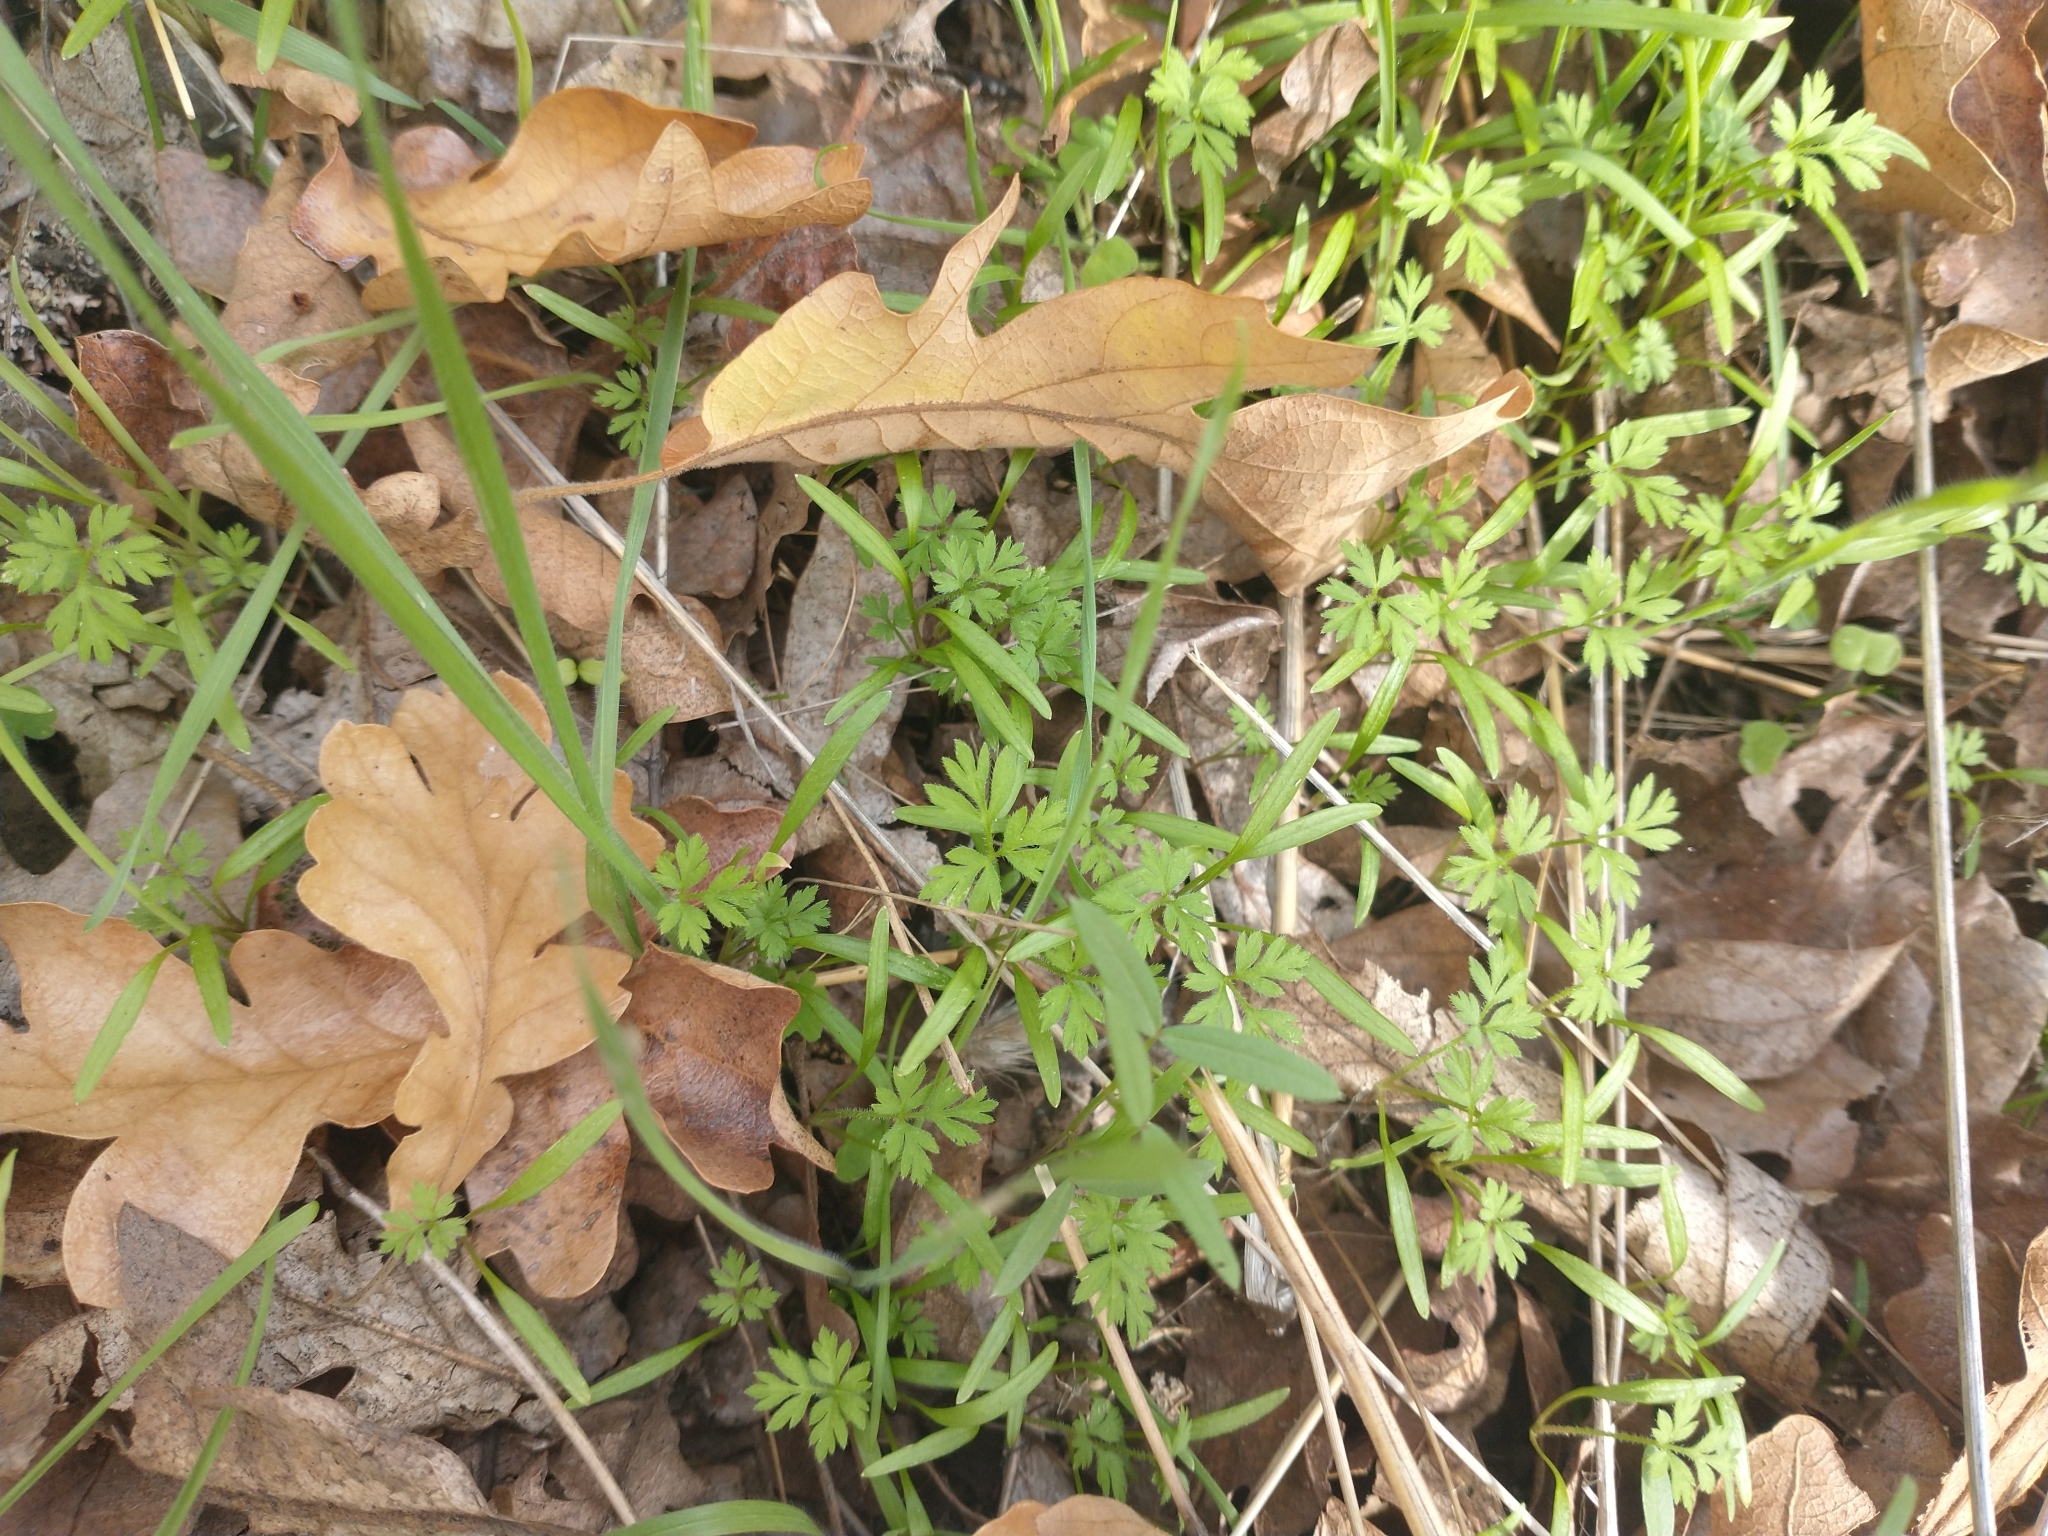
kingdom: Plantae
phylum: Tracheophyta
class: Magnoliopsida
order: Apiales
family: Apiaceae
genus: Anthriscus
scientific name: Anthriscus caucalis
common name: Bur chervil
